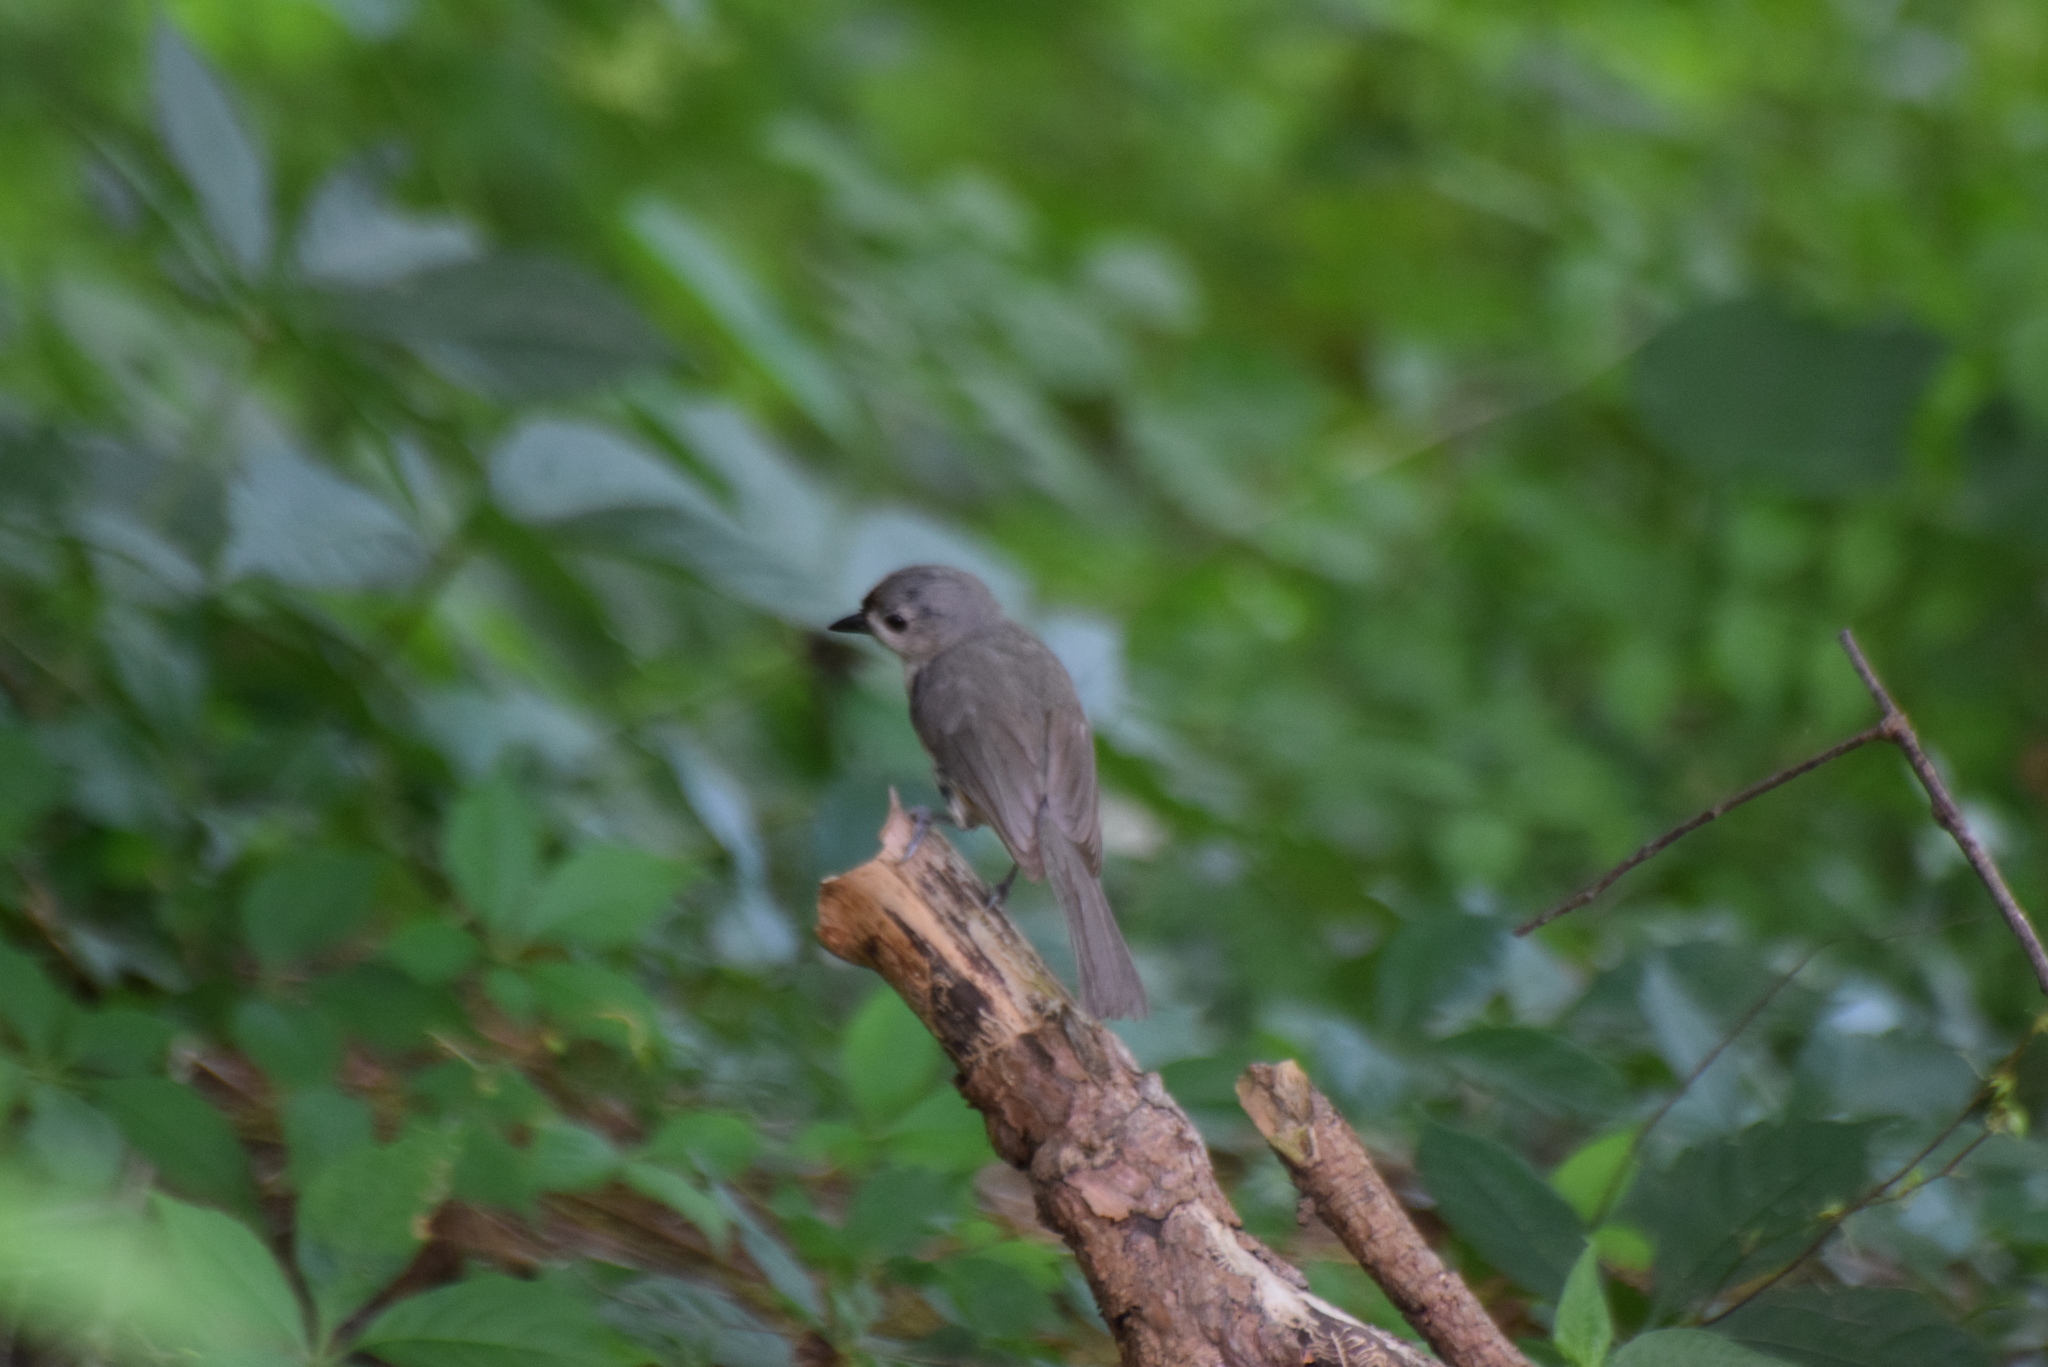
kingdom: Animalia
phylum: Chordata
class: Aves
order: Passeriformes
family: Paridae
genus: Baeolophus
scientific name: Baeolophus bicolor
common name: Tufted titmouse
